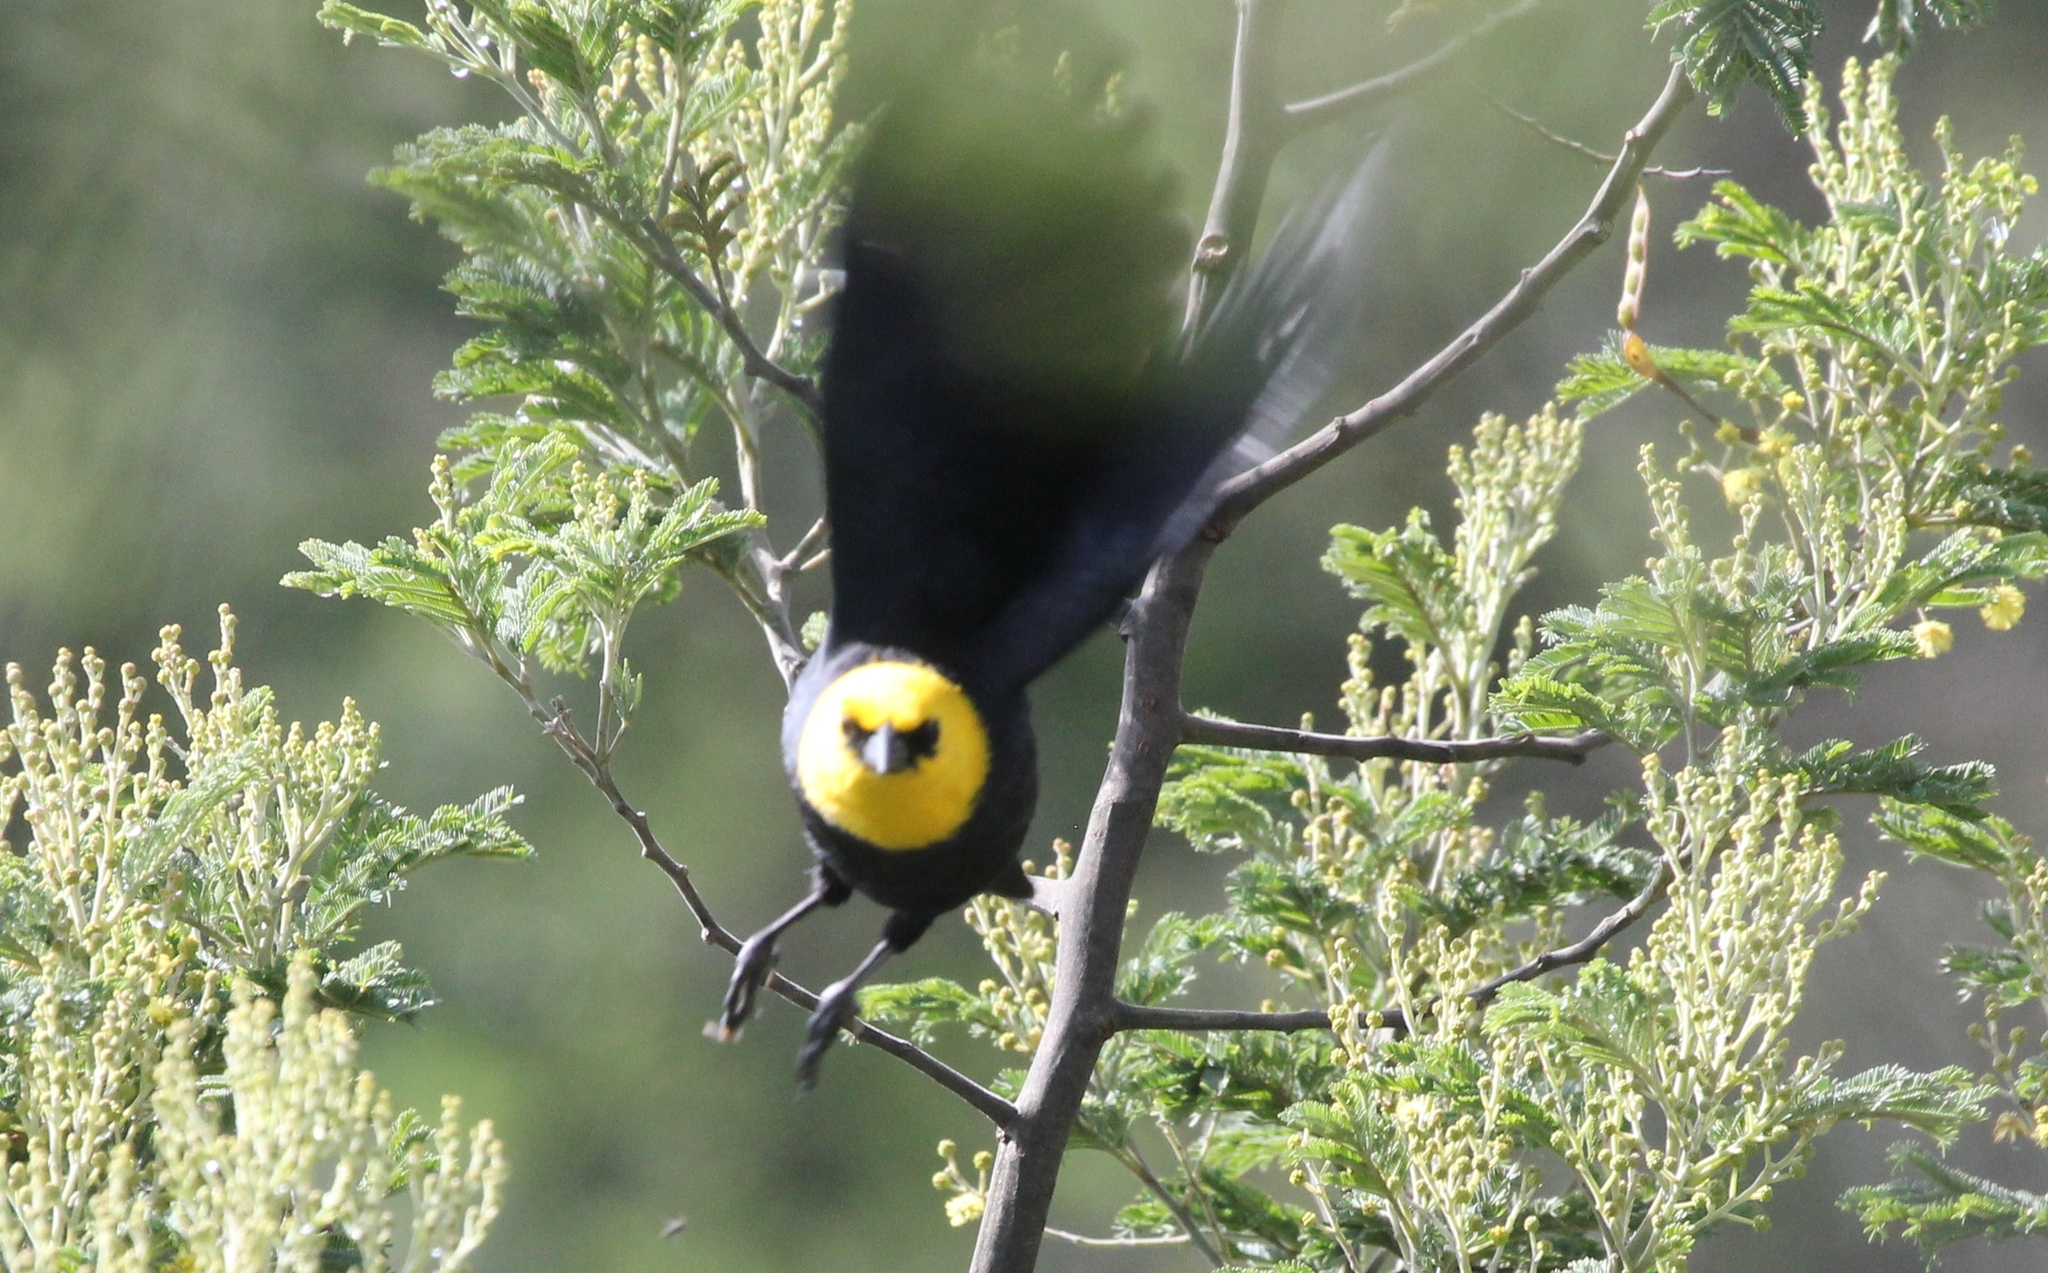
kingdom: Animalia
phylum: Chordata
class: Aves
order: Passeriformes
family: Icteridae
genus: Chrysomus
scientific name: Chrysomus icterocephalus
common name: Yellow-hooded blackbird
